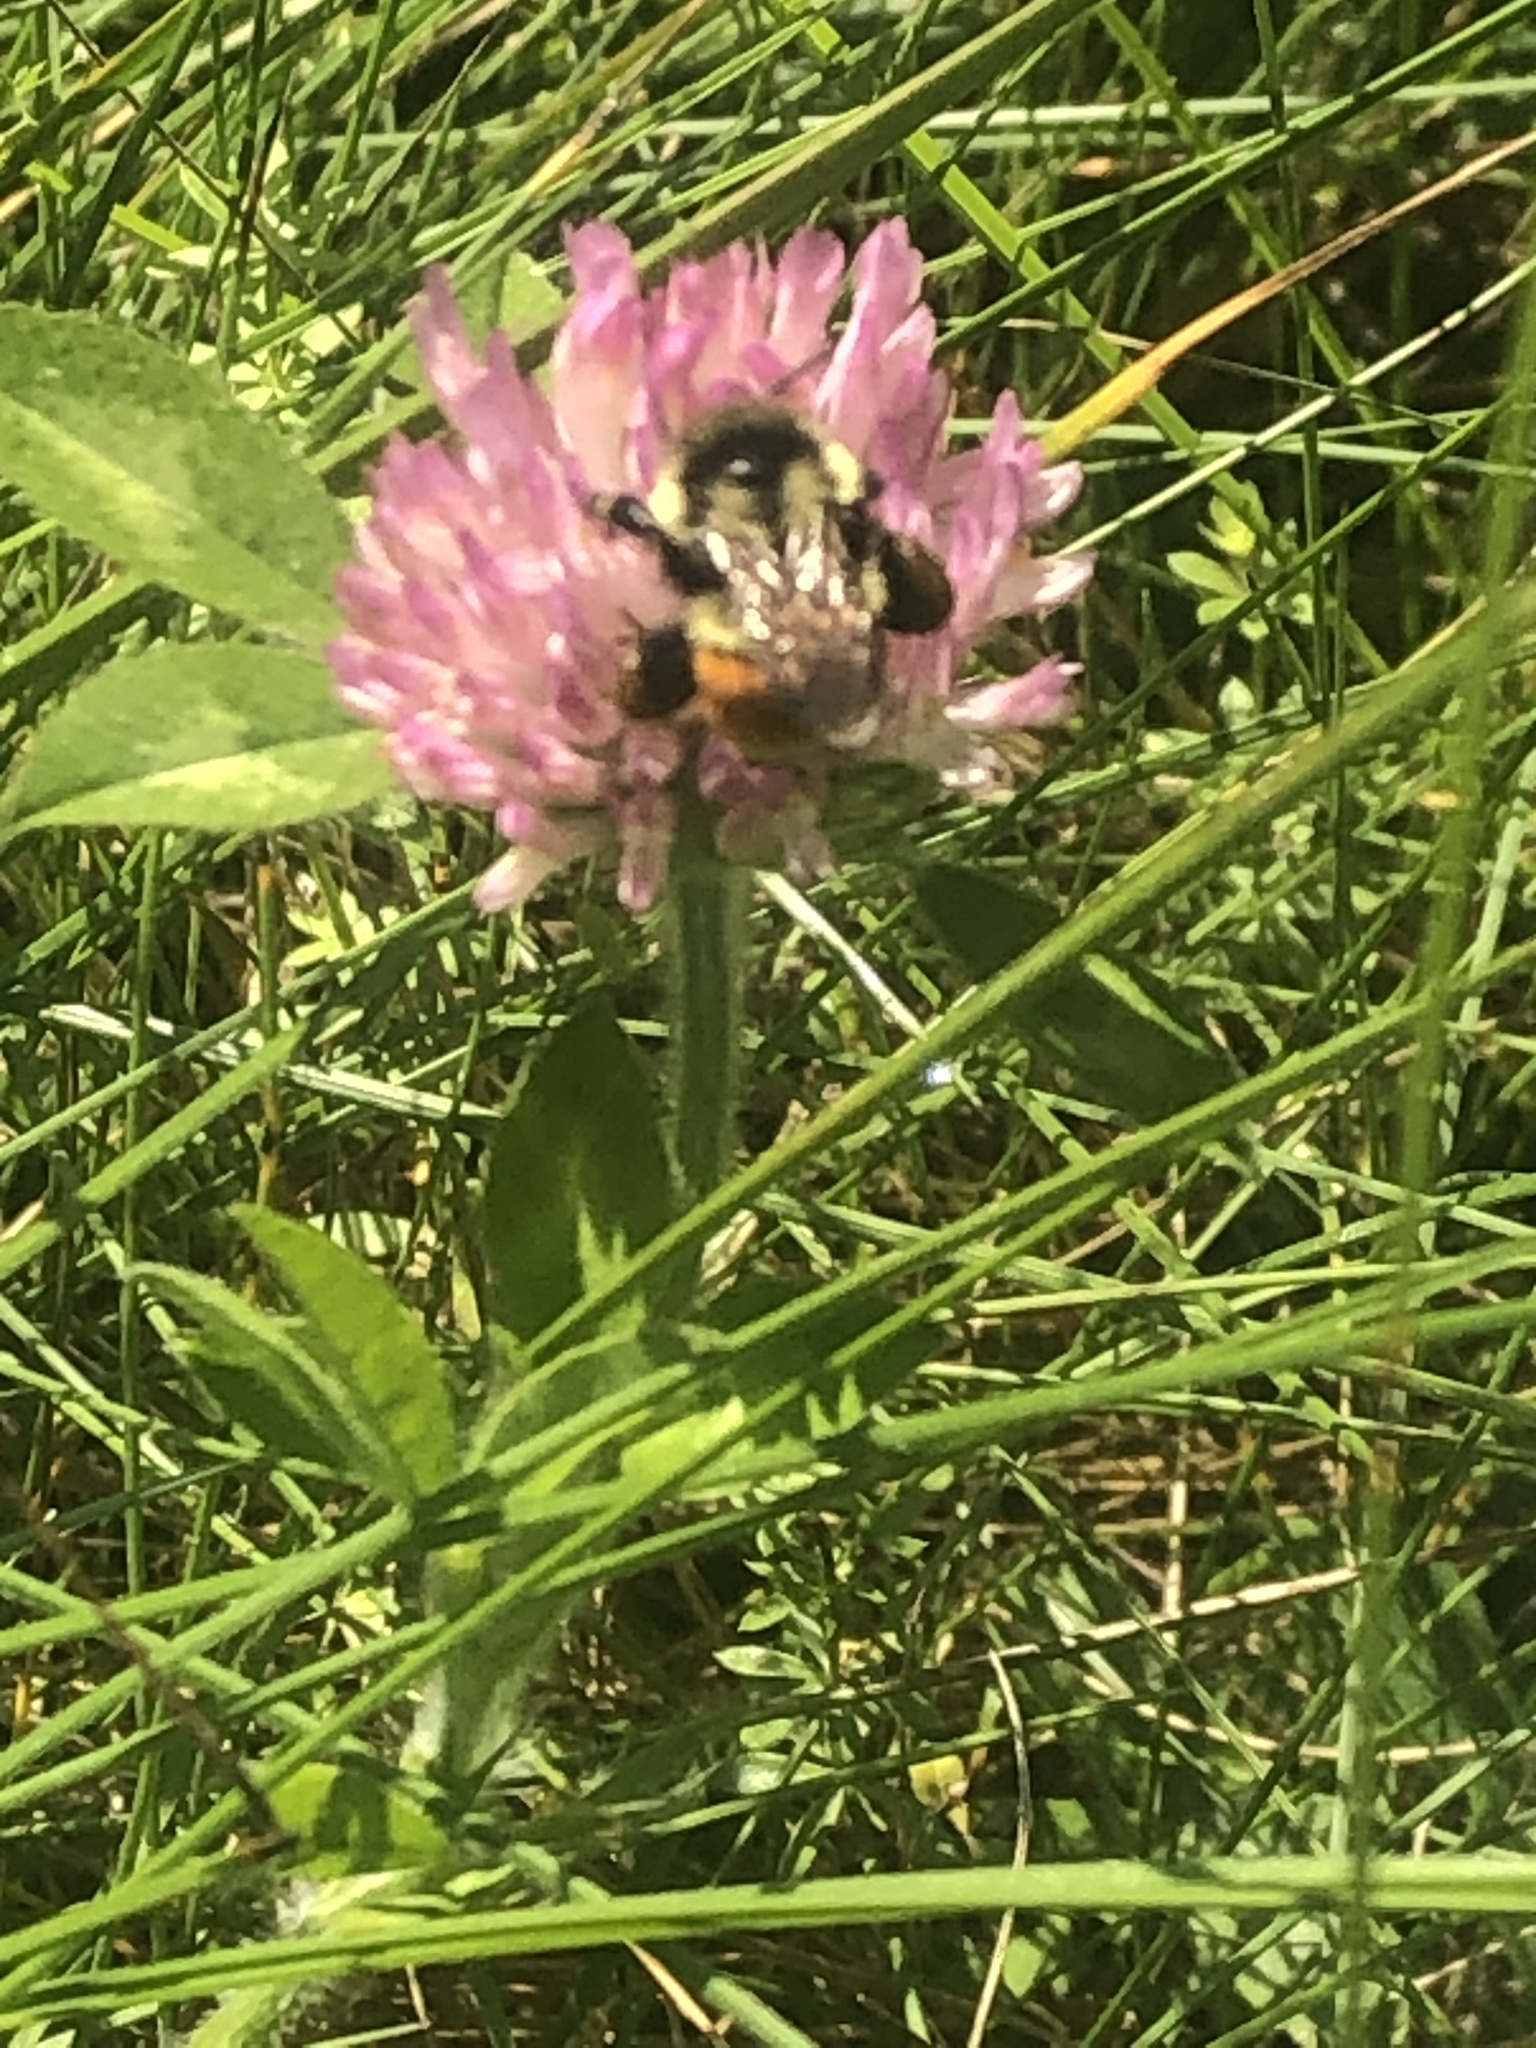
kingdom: Animalia
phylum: Arthropoda
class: Insecta
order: Hymenoptera
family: Apidae
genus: Bombus
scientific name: Bombus ternarius
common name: Tri-colored bumble bee
